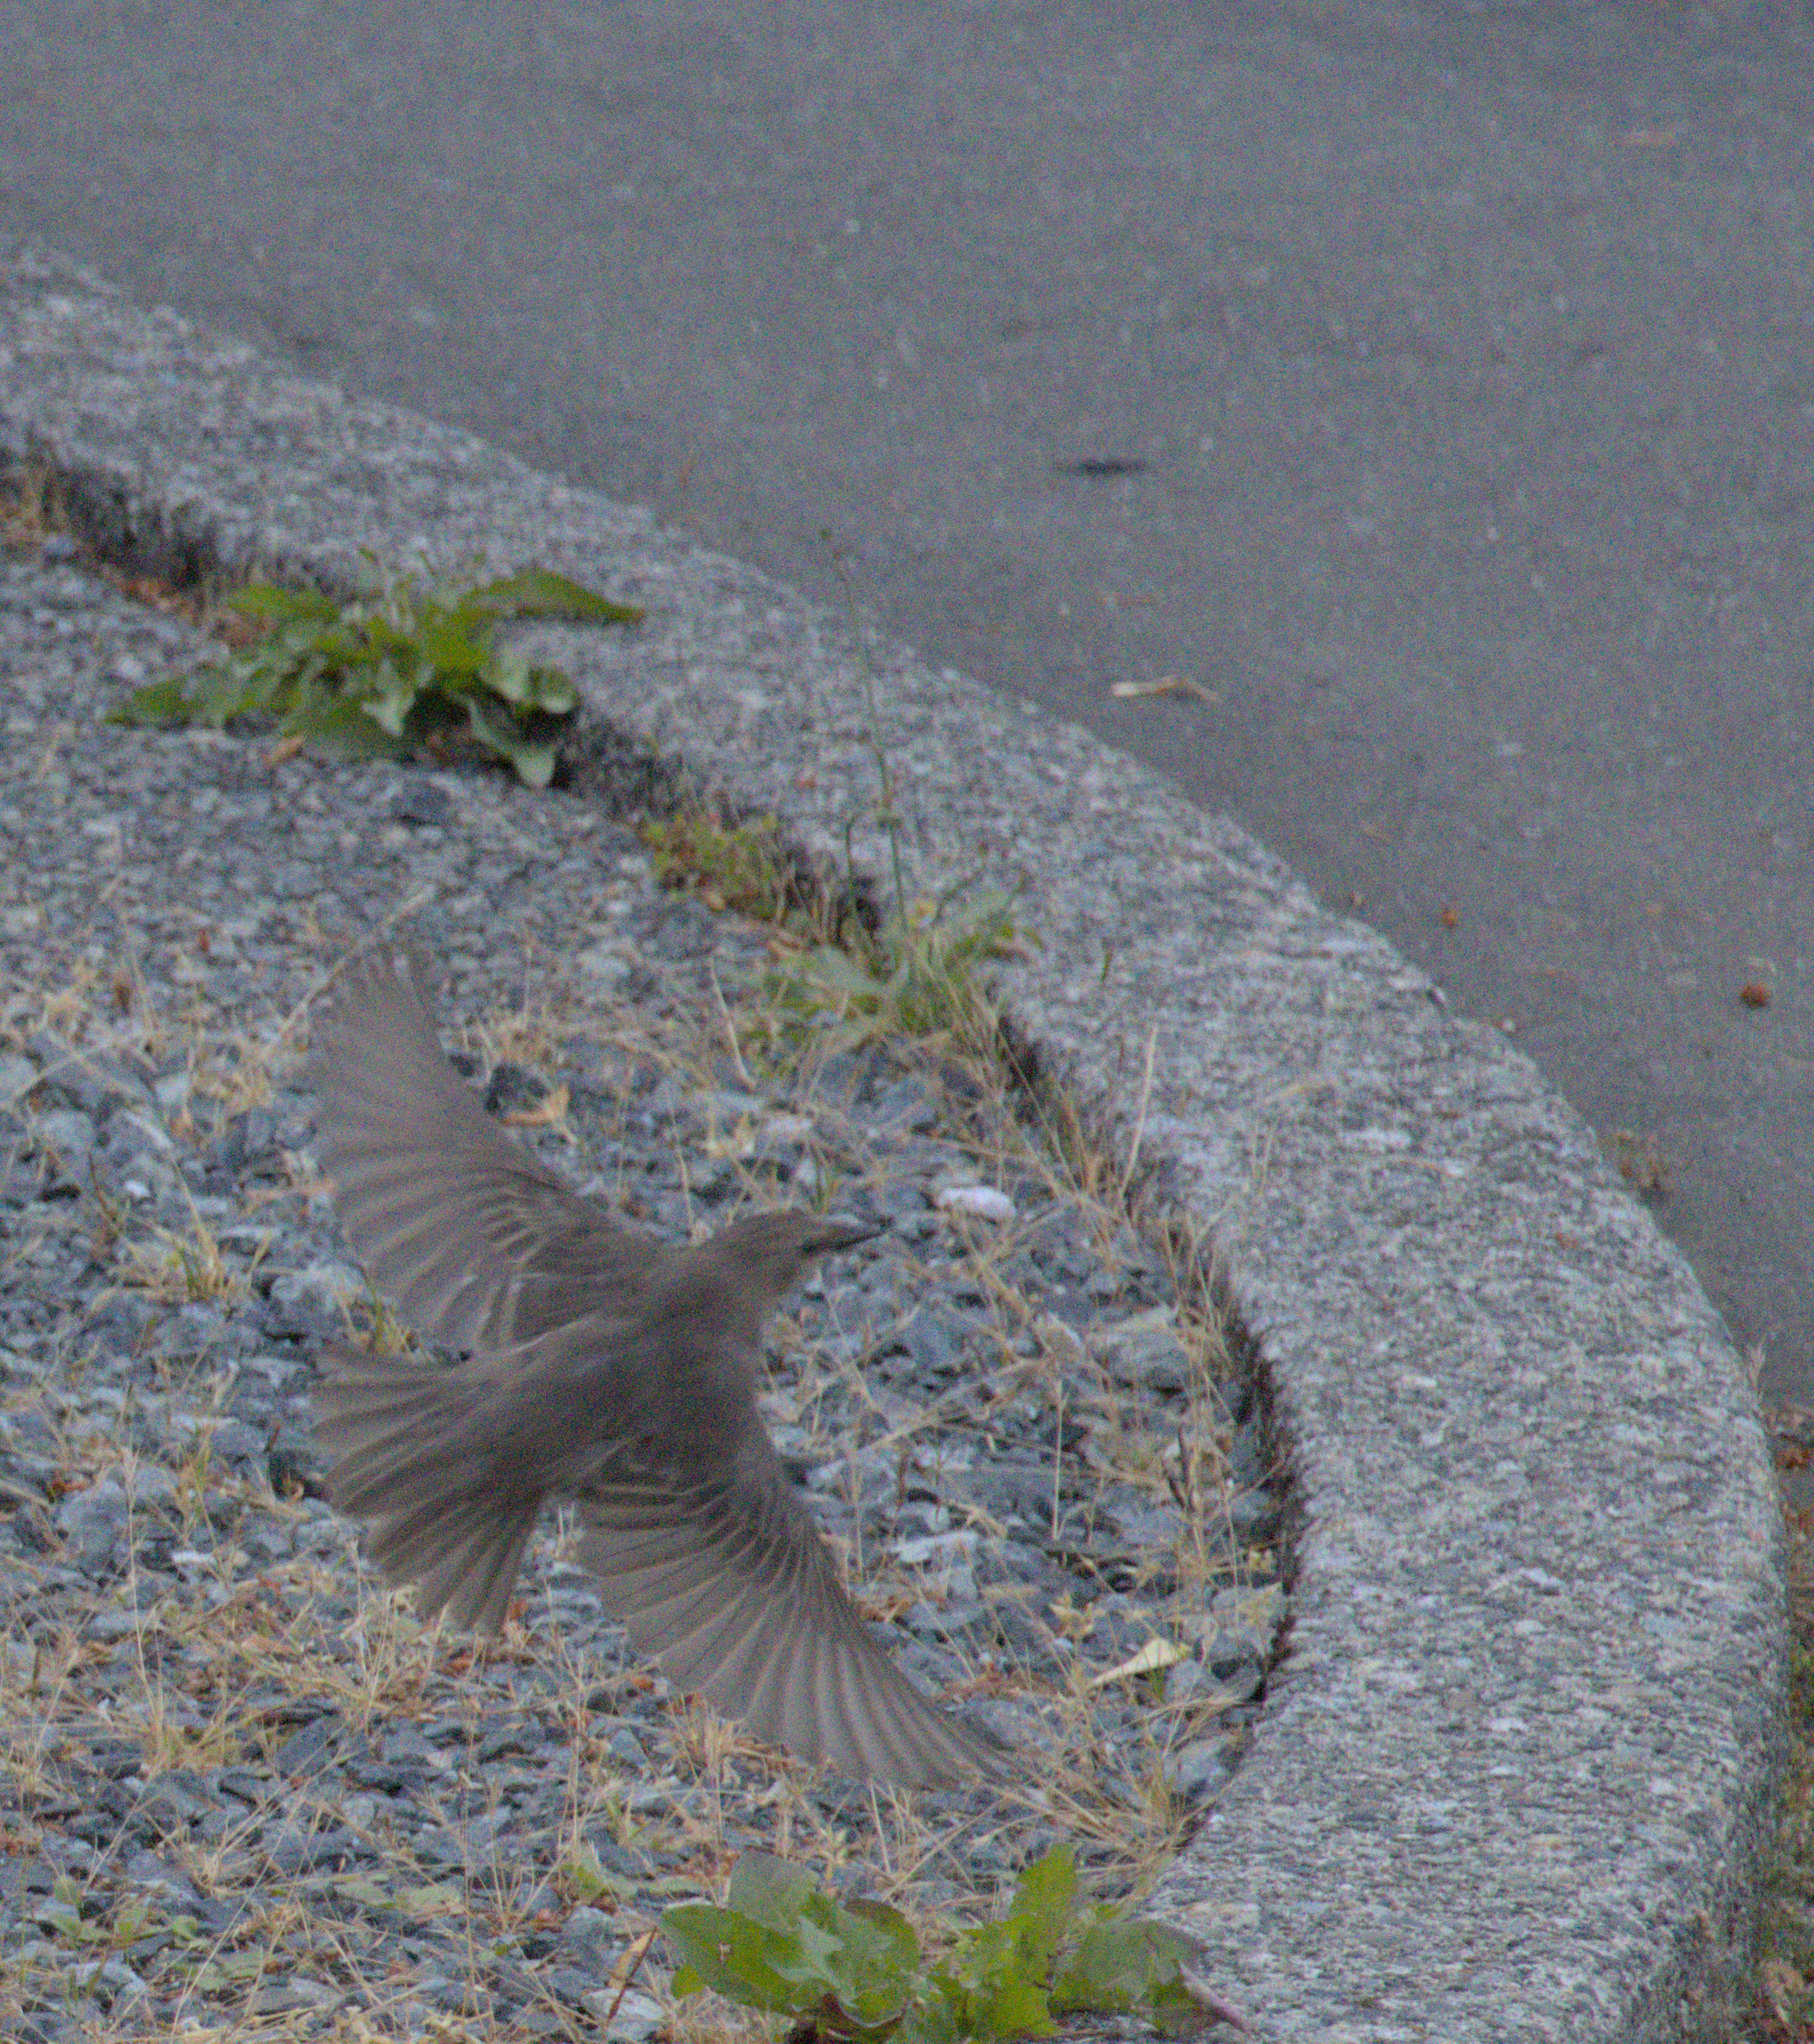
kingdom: Animalia
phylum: Chordata
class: Aves
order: Passeriformes
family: Sturnidae
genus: Sturnus
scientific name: Sturnus vulgaris
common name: Common starling
